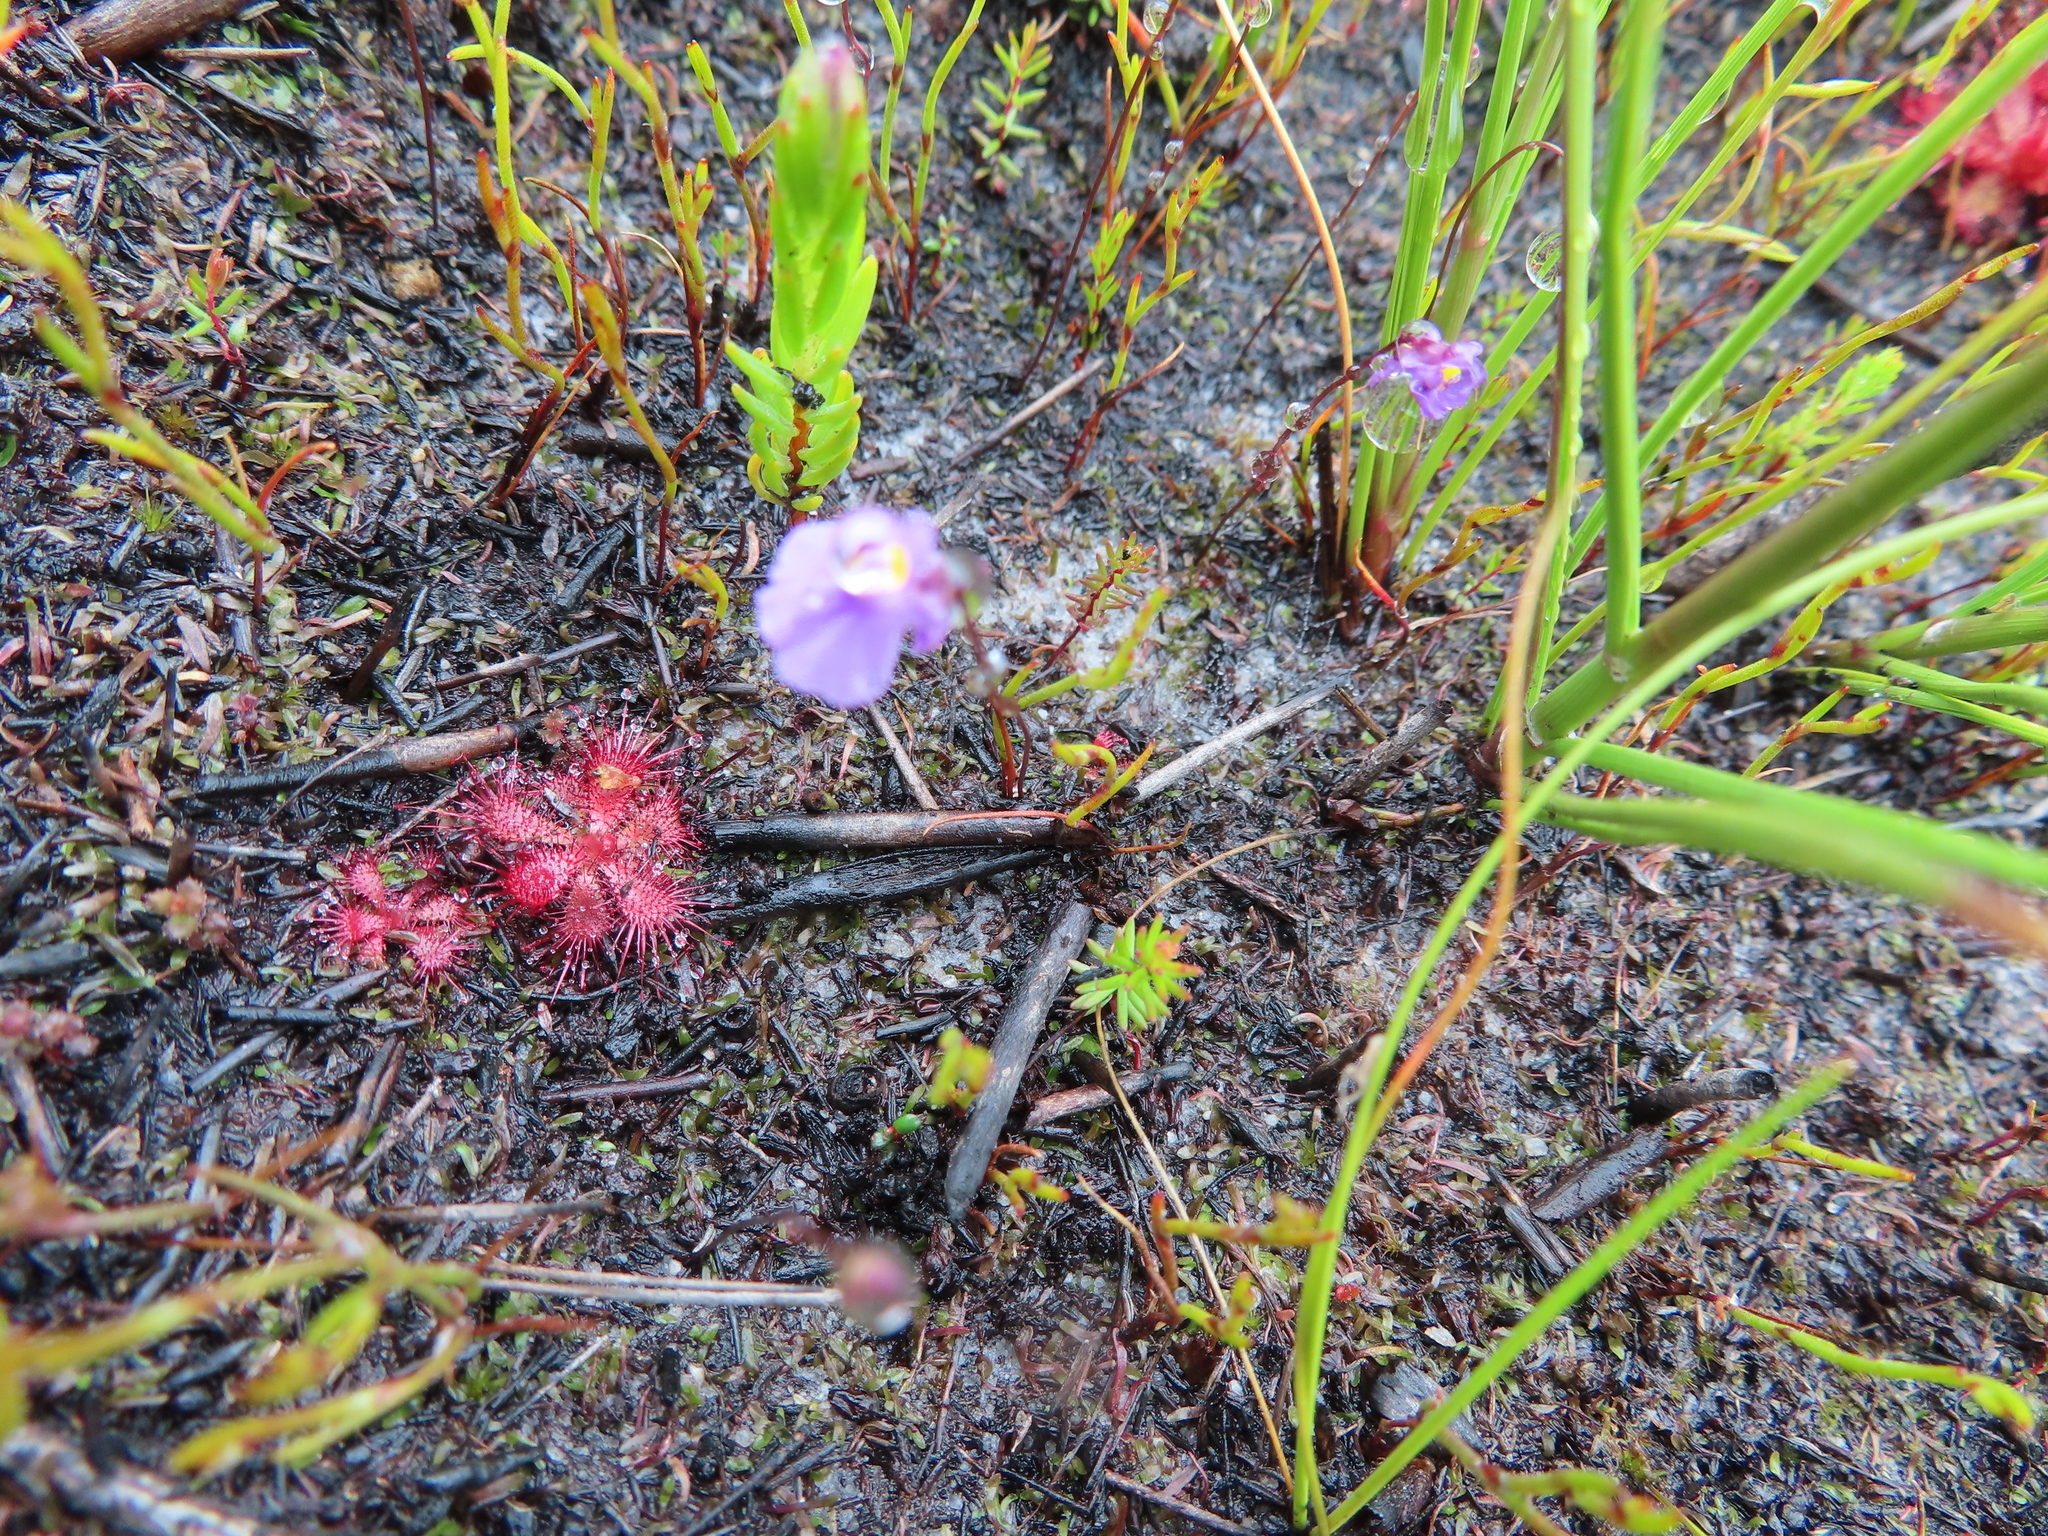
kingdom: Plantae
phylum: Tracheophyta
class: Magnoliopsida
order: Lamiales
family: Lentibulariaceae
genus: Utricularia
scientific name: Utricularia bisquamata
